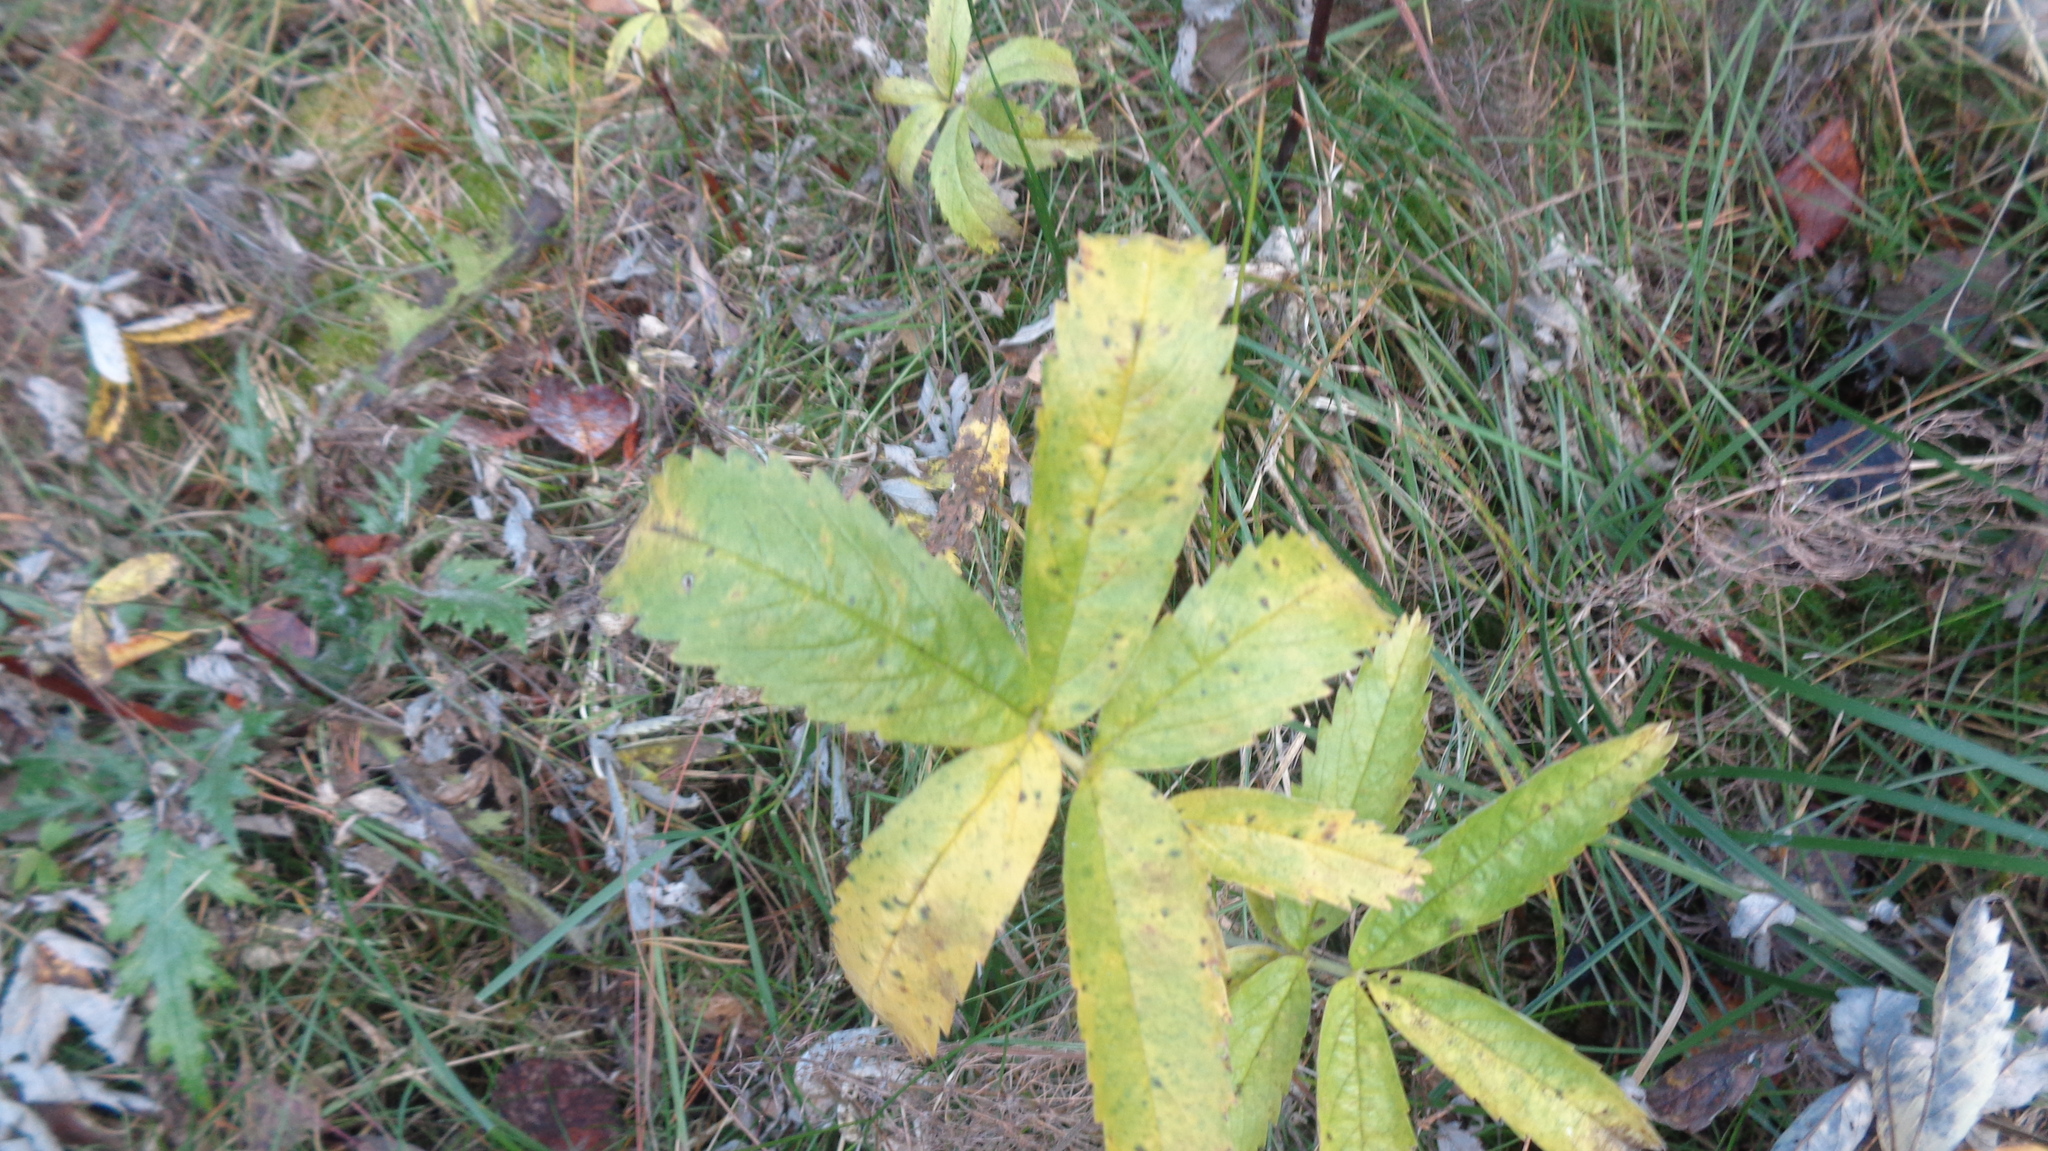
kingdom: Plantae
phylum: Tracheophyta
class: Magnoliopsida
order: Rosales
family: Rosaceae
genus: Comarum
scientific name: Comarum palustre
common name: Marsh cinquefoil
